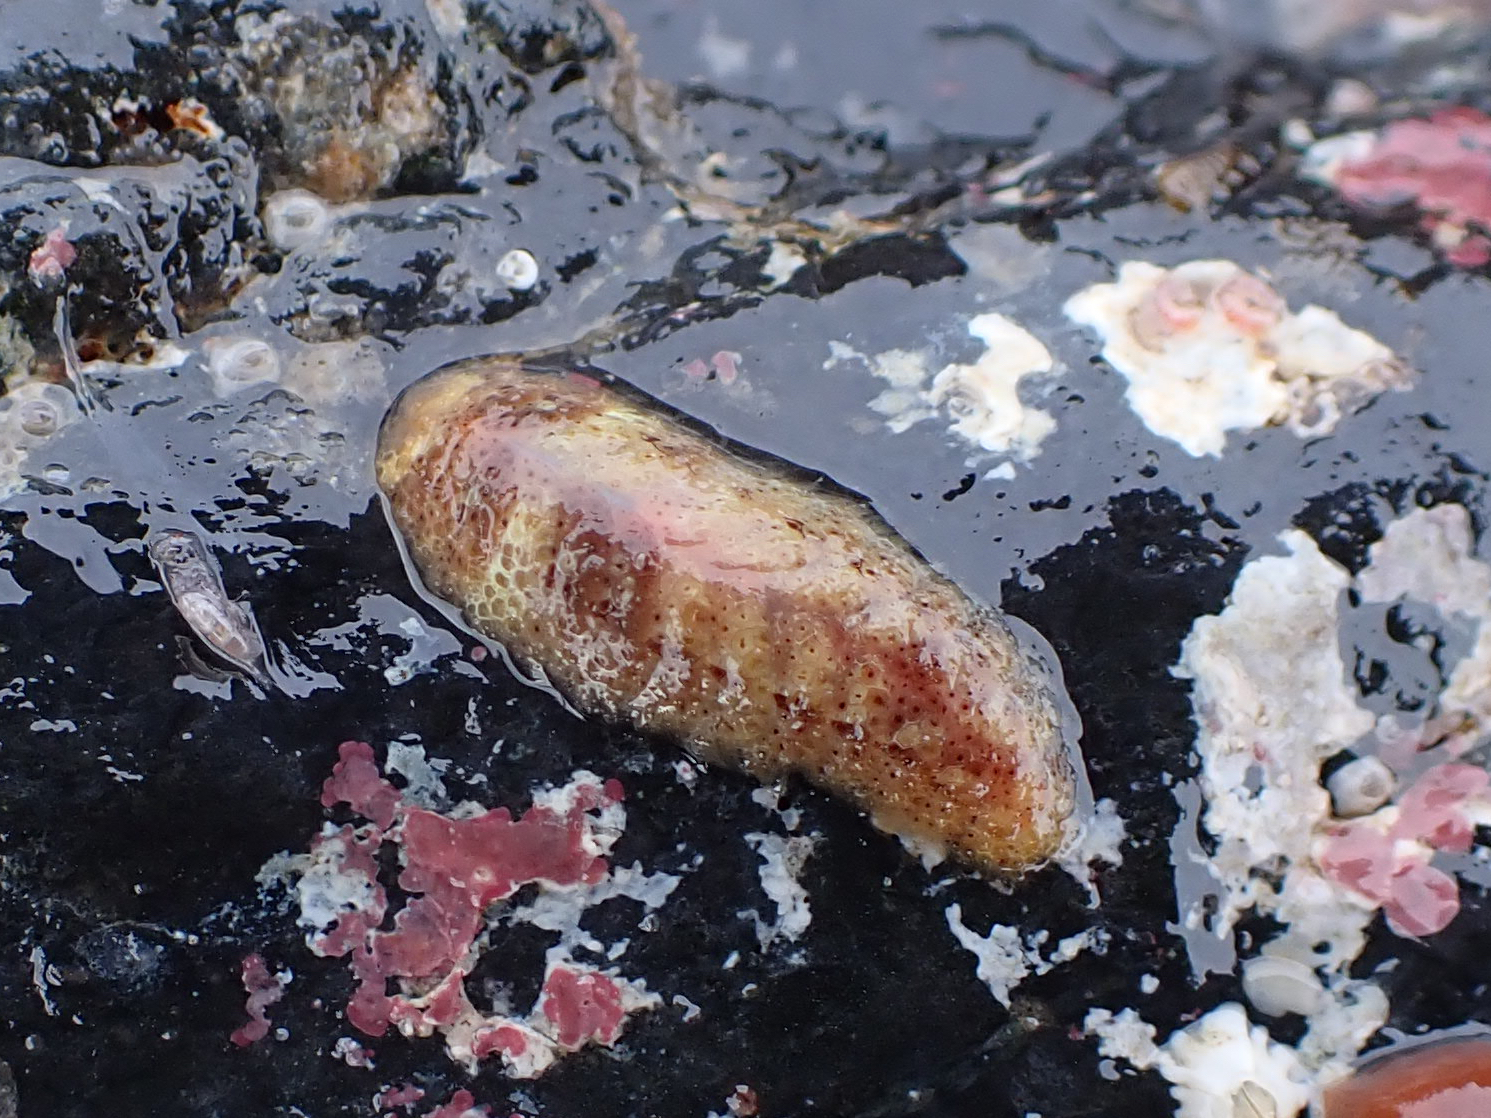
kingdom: Animalia
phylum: Annelida
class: Polychaeta
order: Phyllodocida
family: Polynoidae
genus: Gaudichaudius
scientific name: Gaudichaudius iphionelloides
